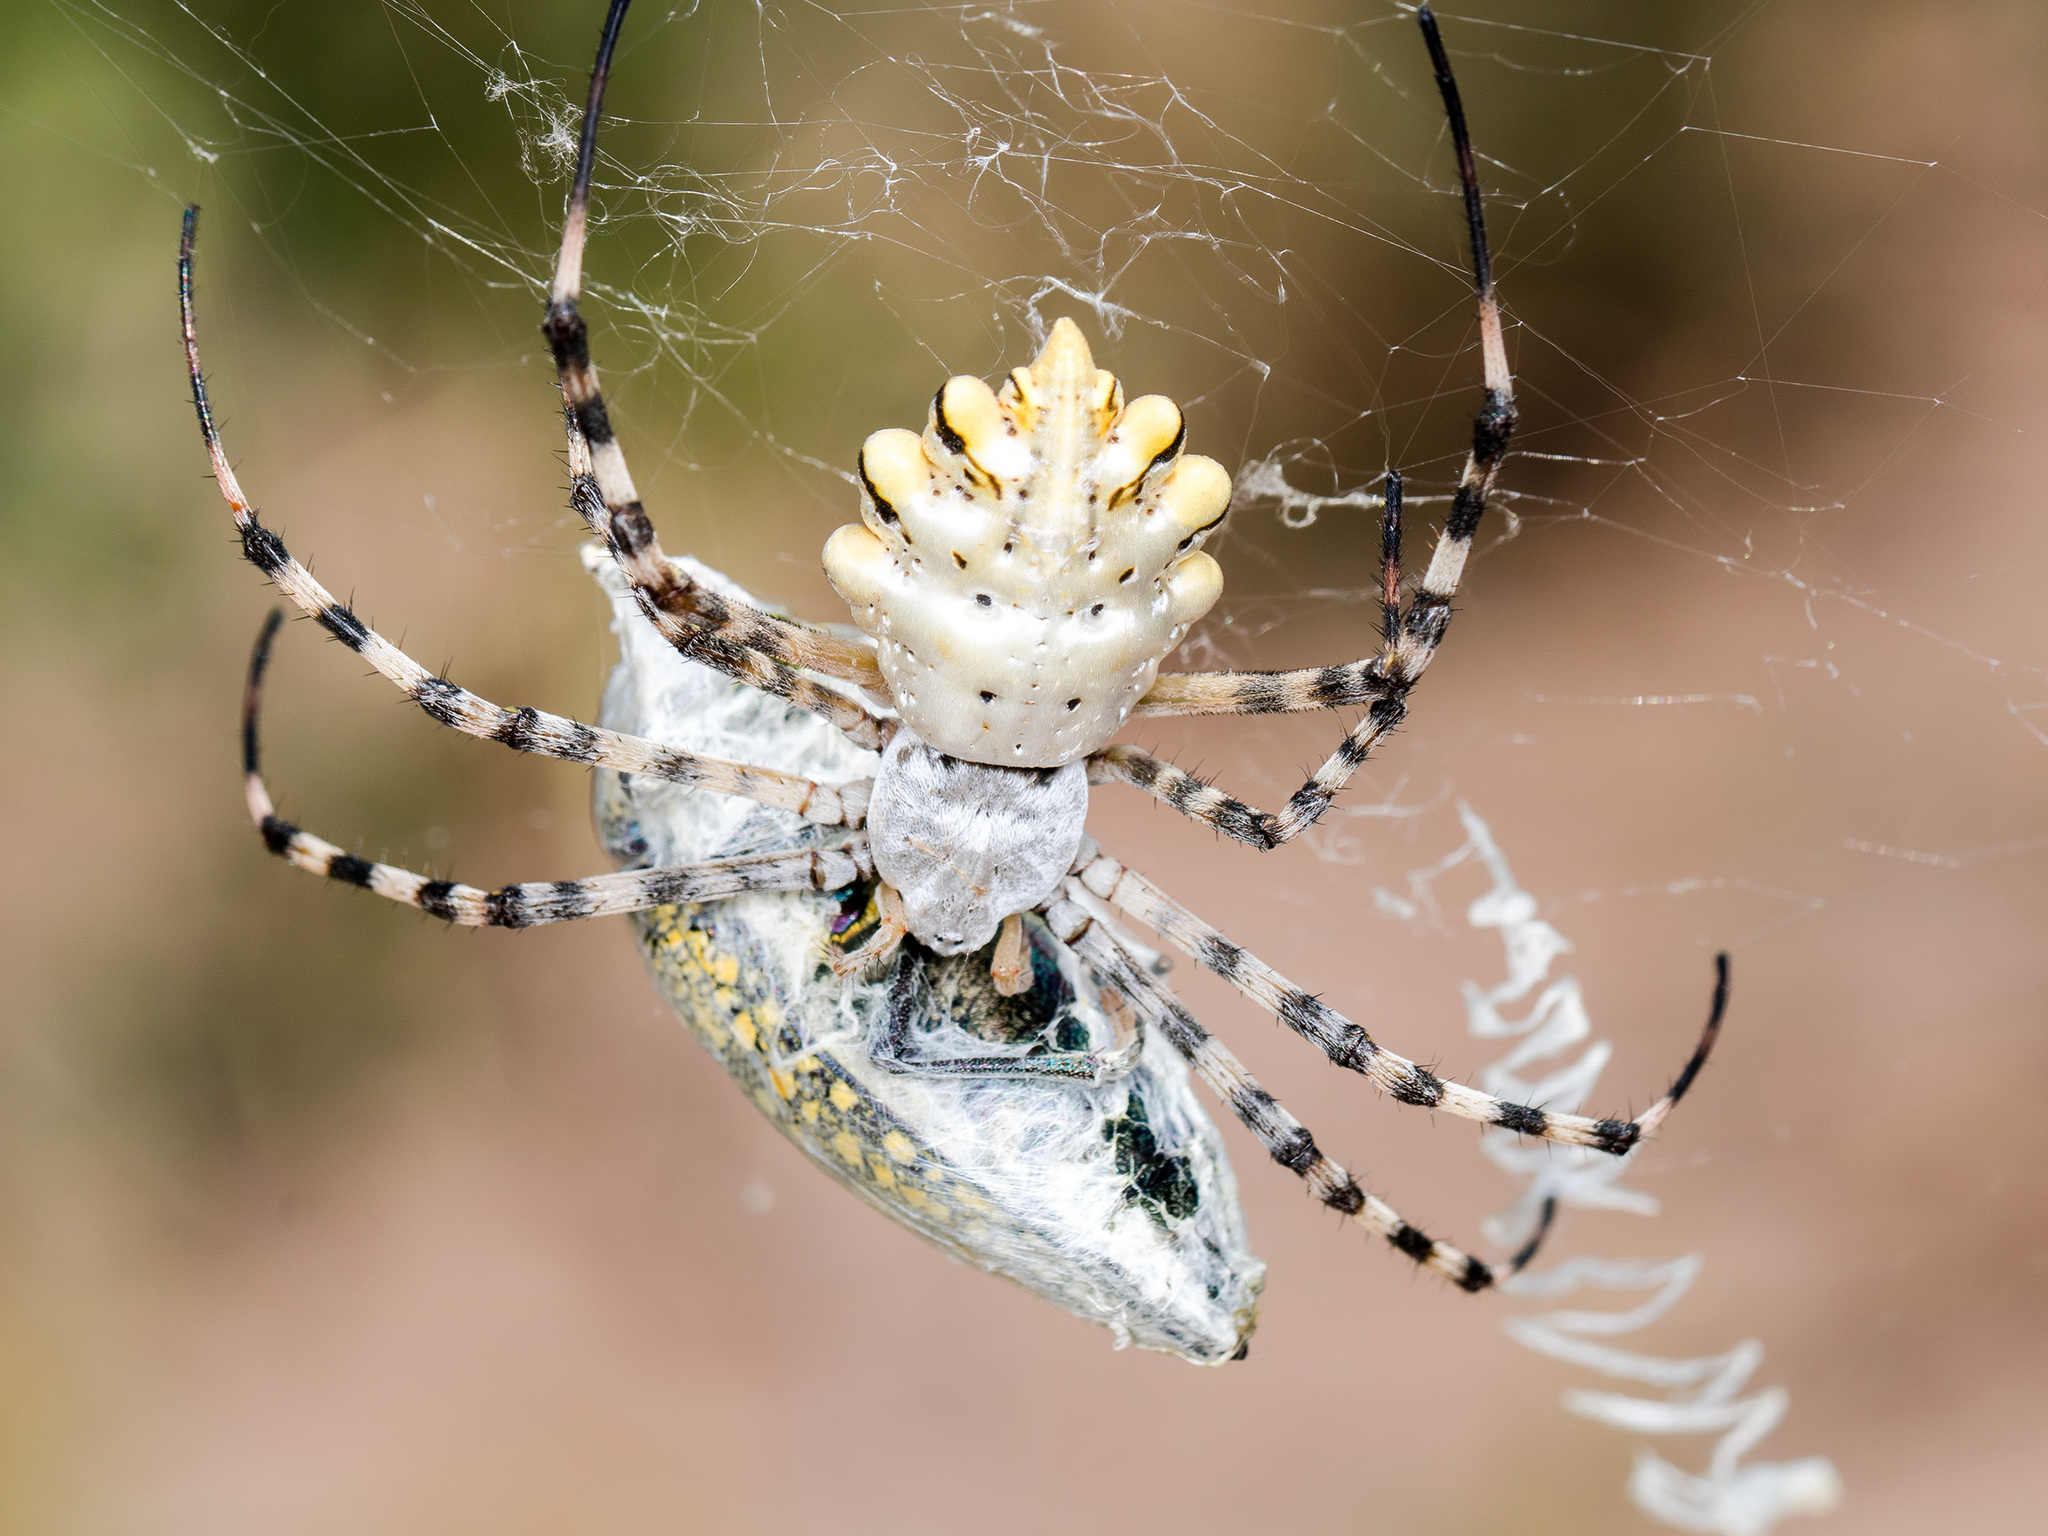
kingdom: Animalia
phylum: Arthropoda
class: Arachnida
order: Araneae
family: Araneidae
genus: Argiope
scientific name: Argiope lobata
